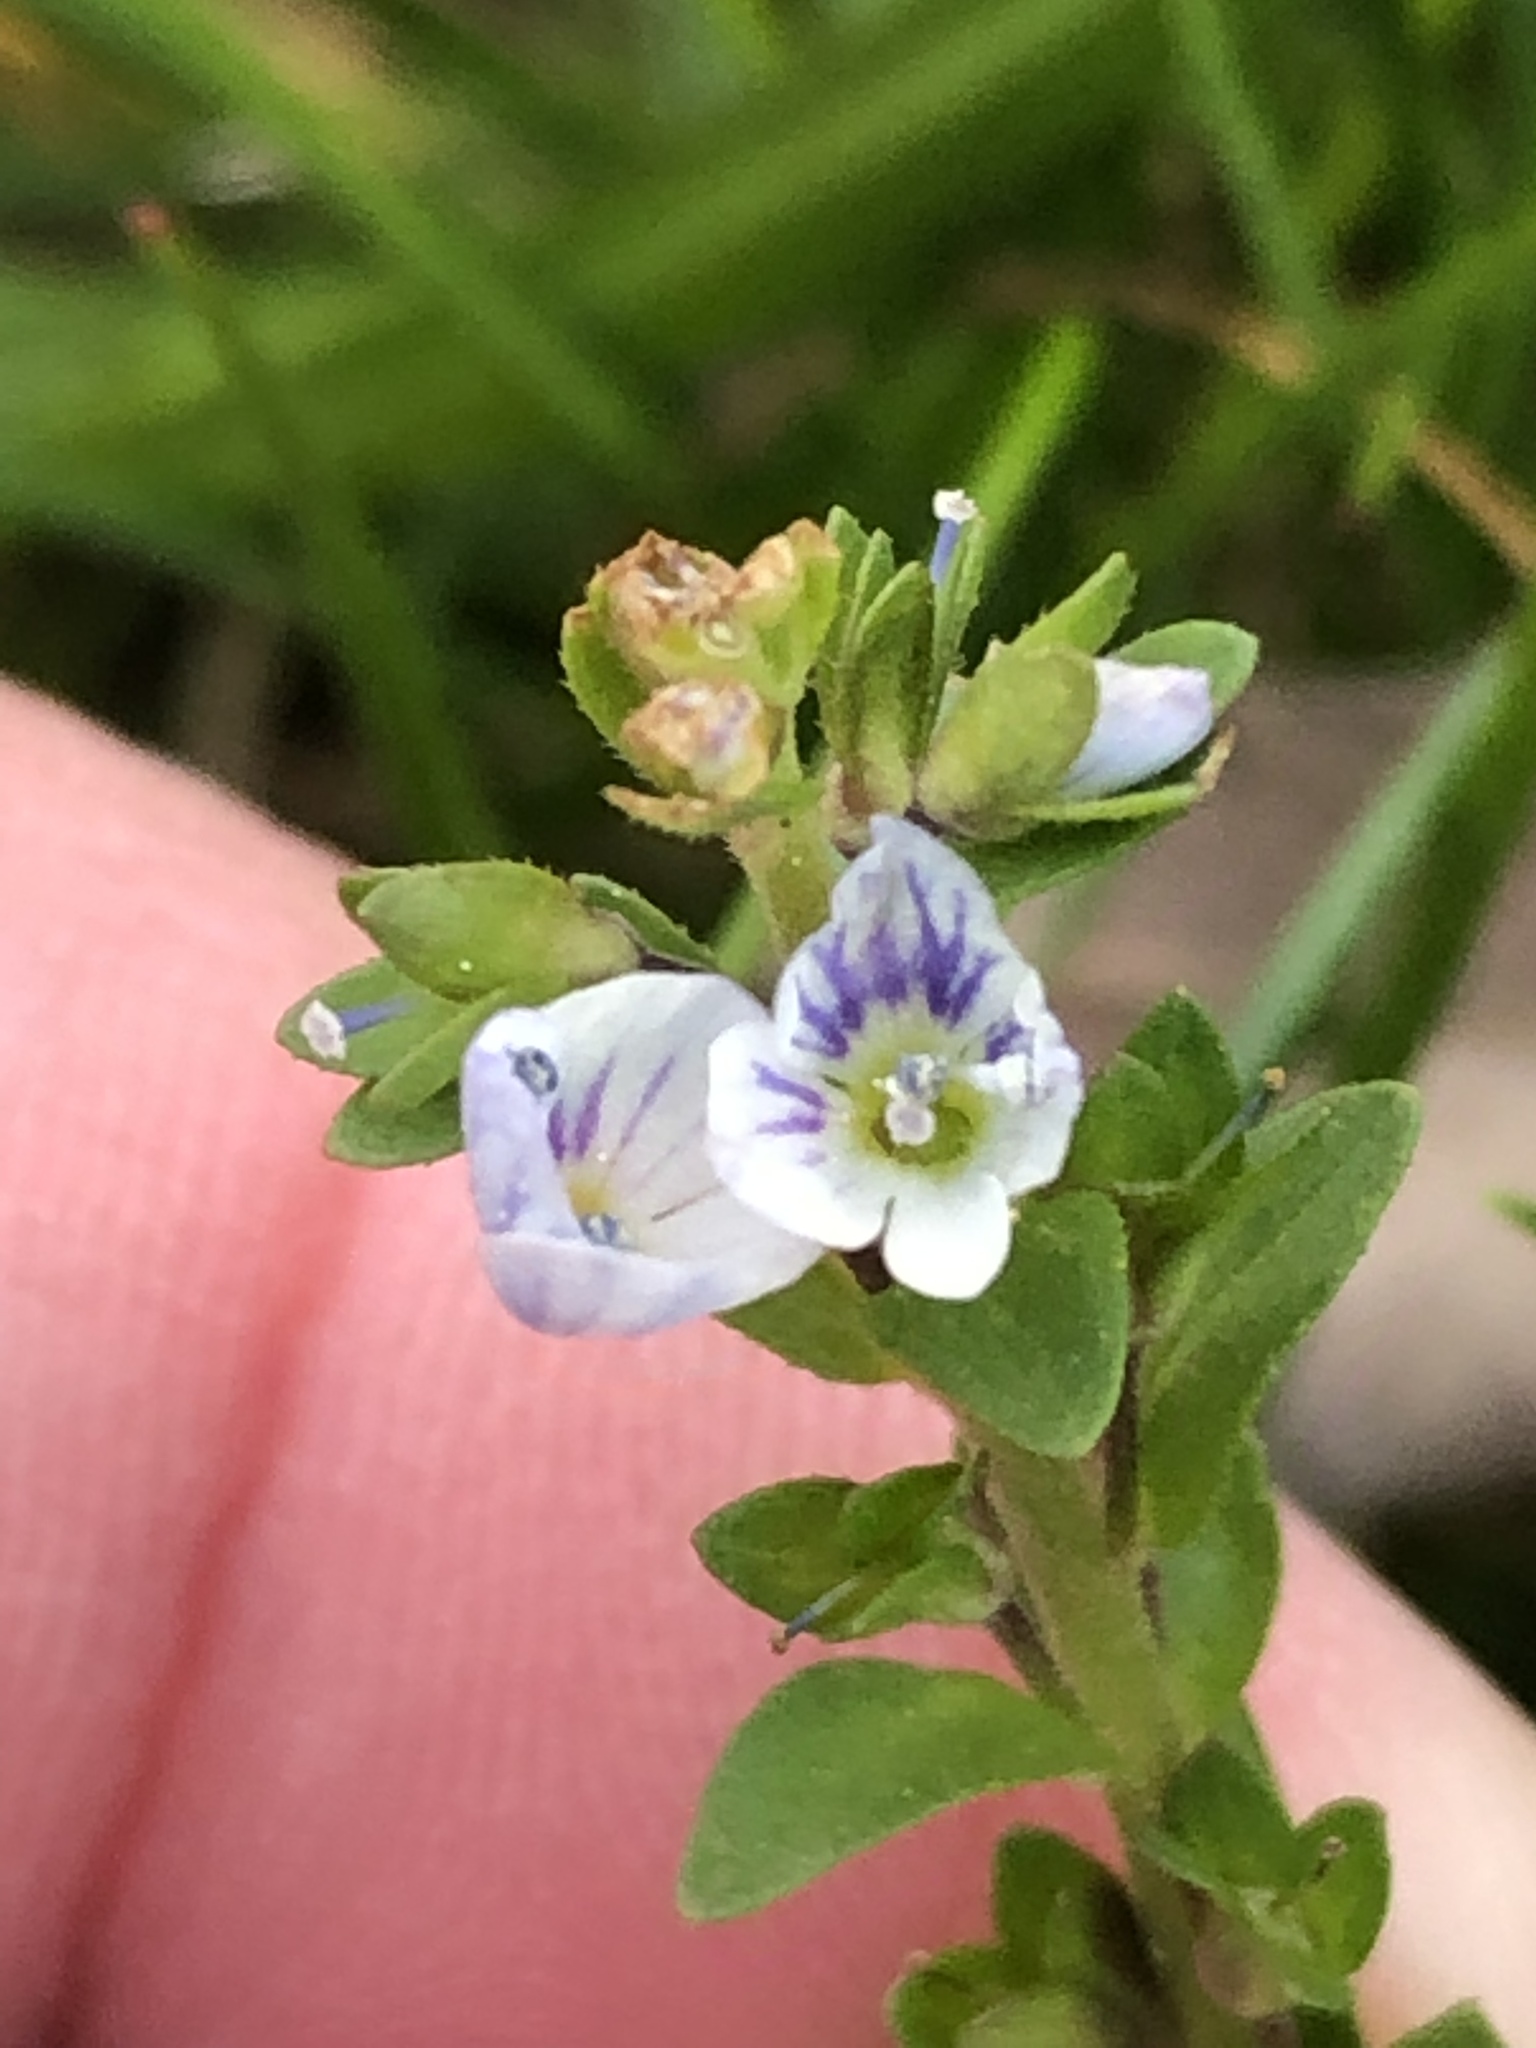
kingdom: Plantae
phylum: Tracheophyta
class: Magnoliopsida
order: Lamiales
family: Plantaginaceae
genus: Veronica
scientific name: Veronica serpyllifolia
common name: Thyme-leaved speedwell
